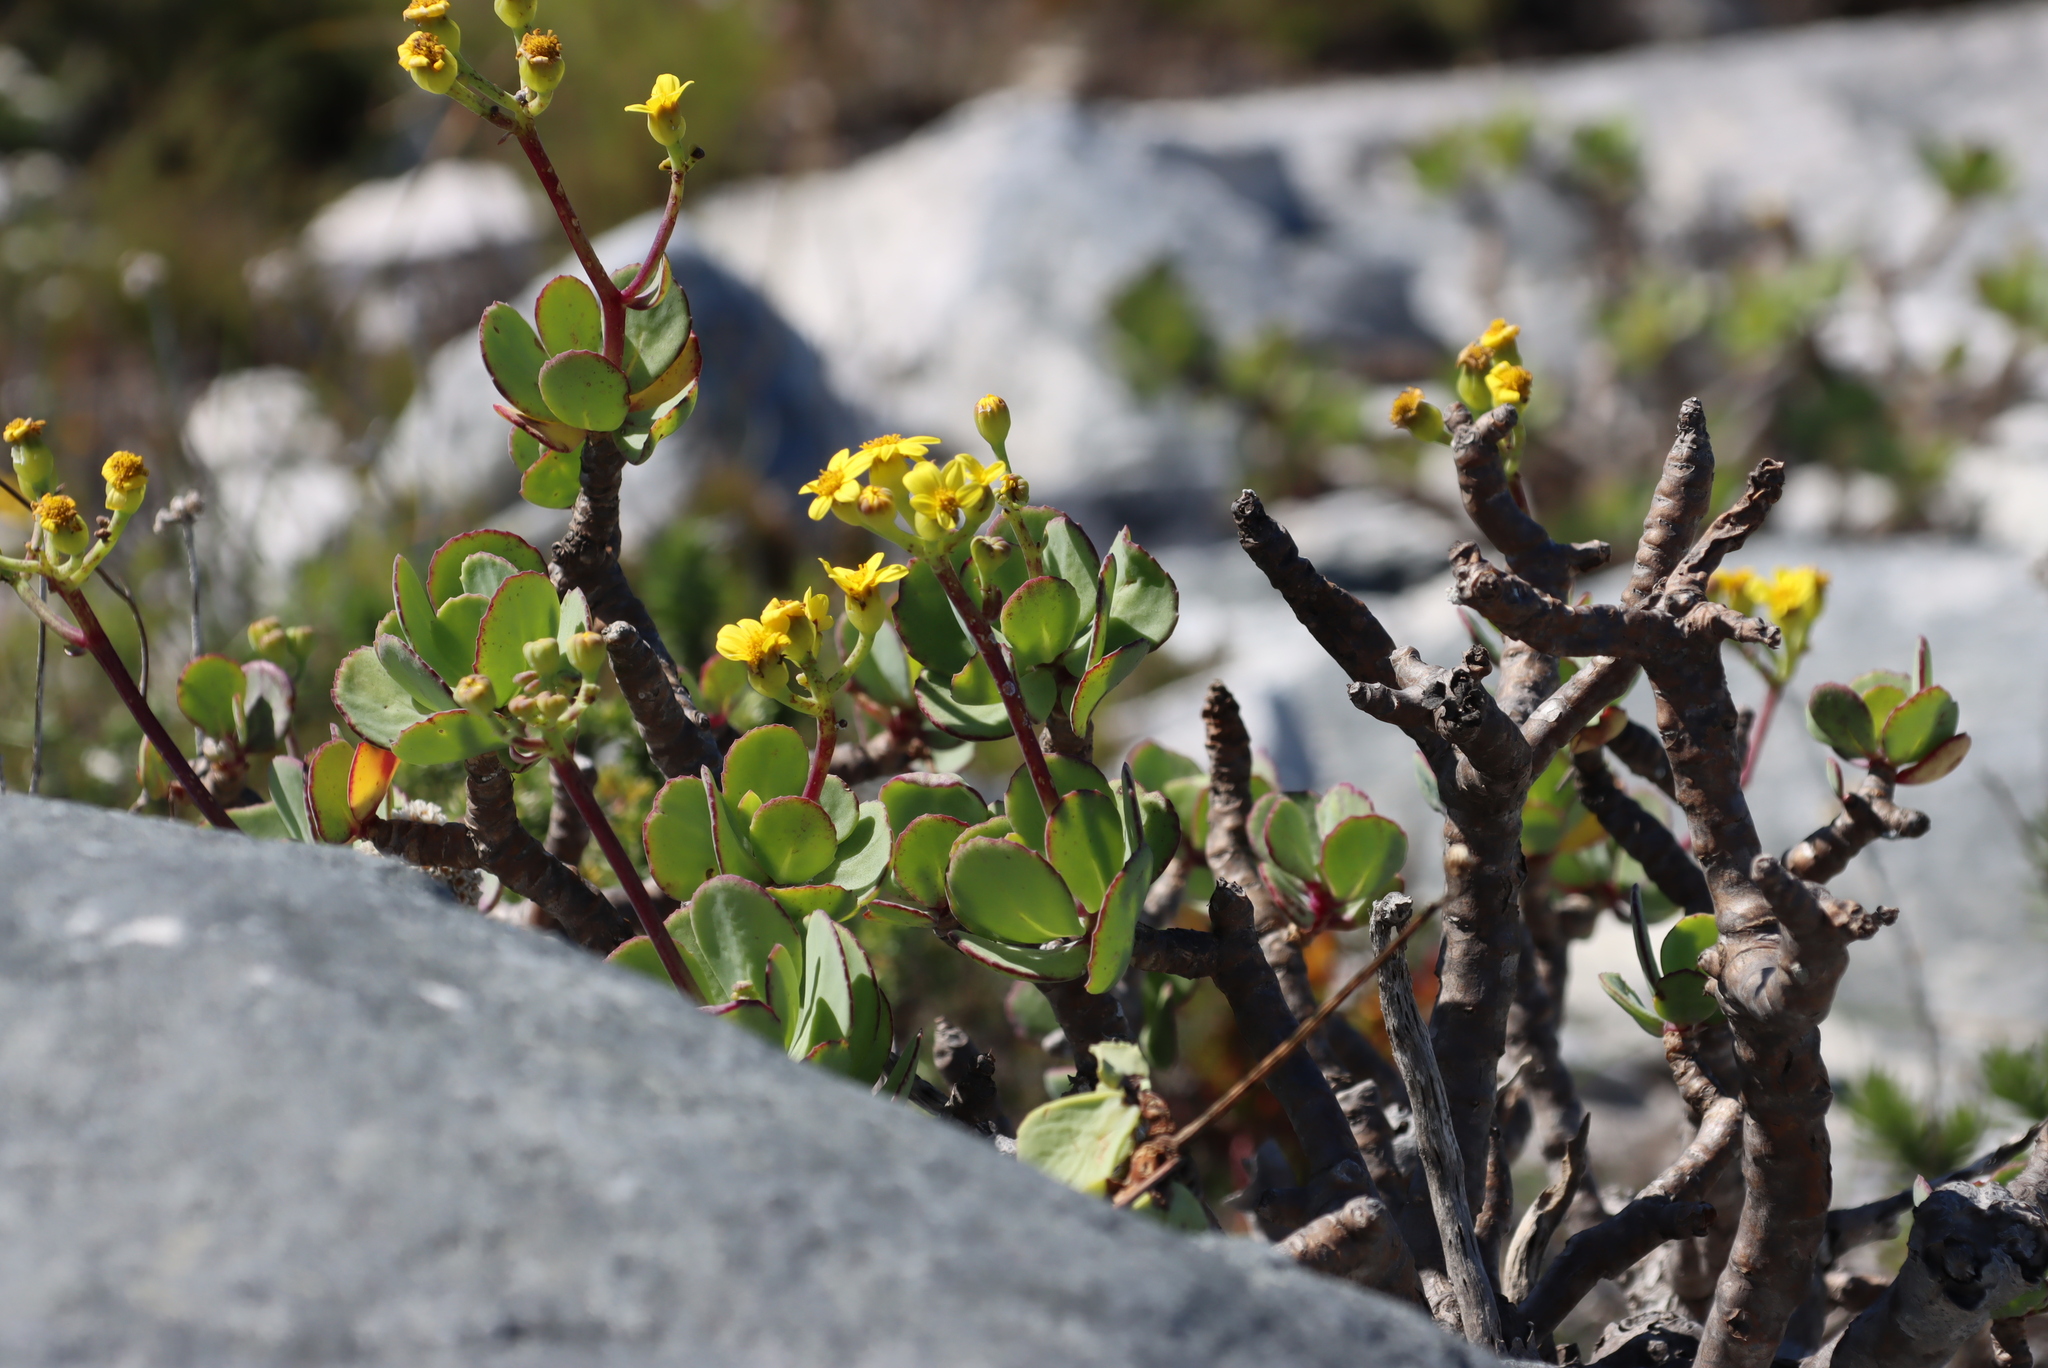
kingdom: Plantae
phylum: Tracheophyta
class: Magnoliopsida
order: Asterales
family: Asteraceae
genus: Othonna
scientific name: Othonna dentata
